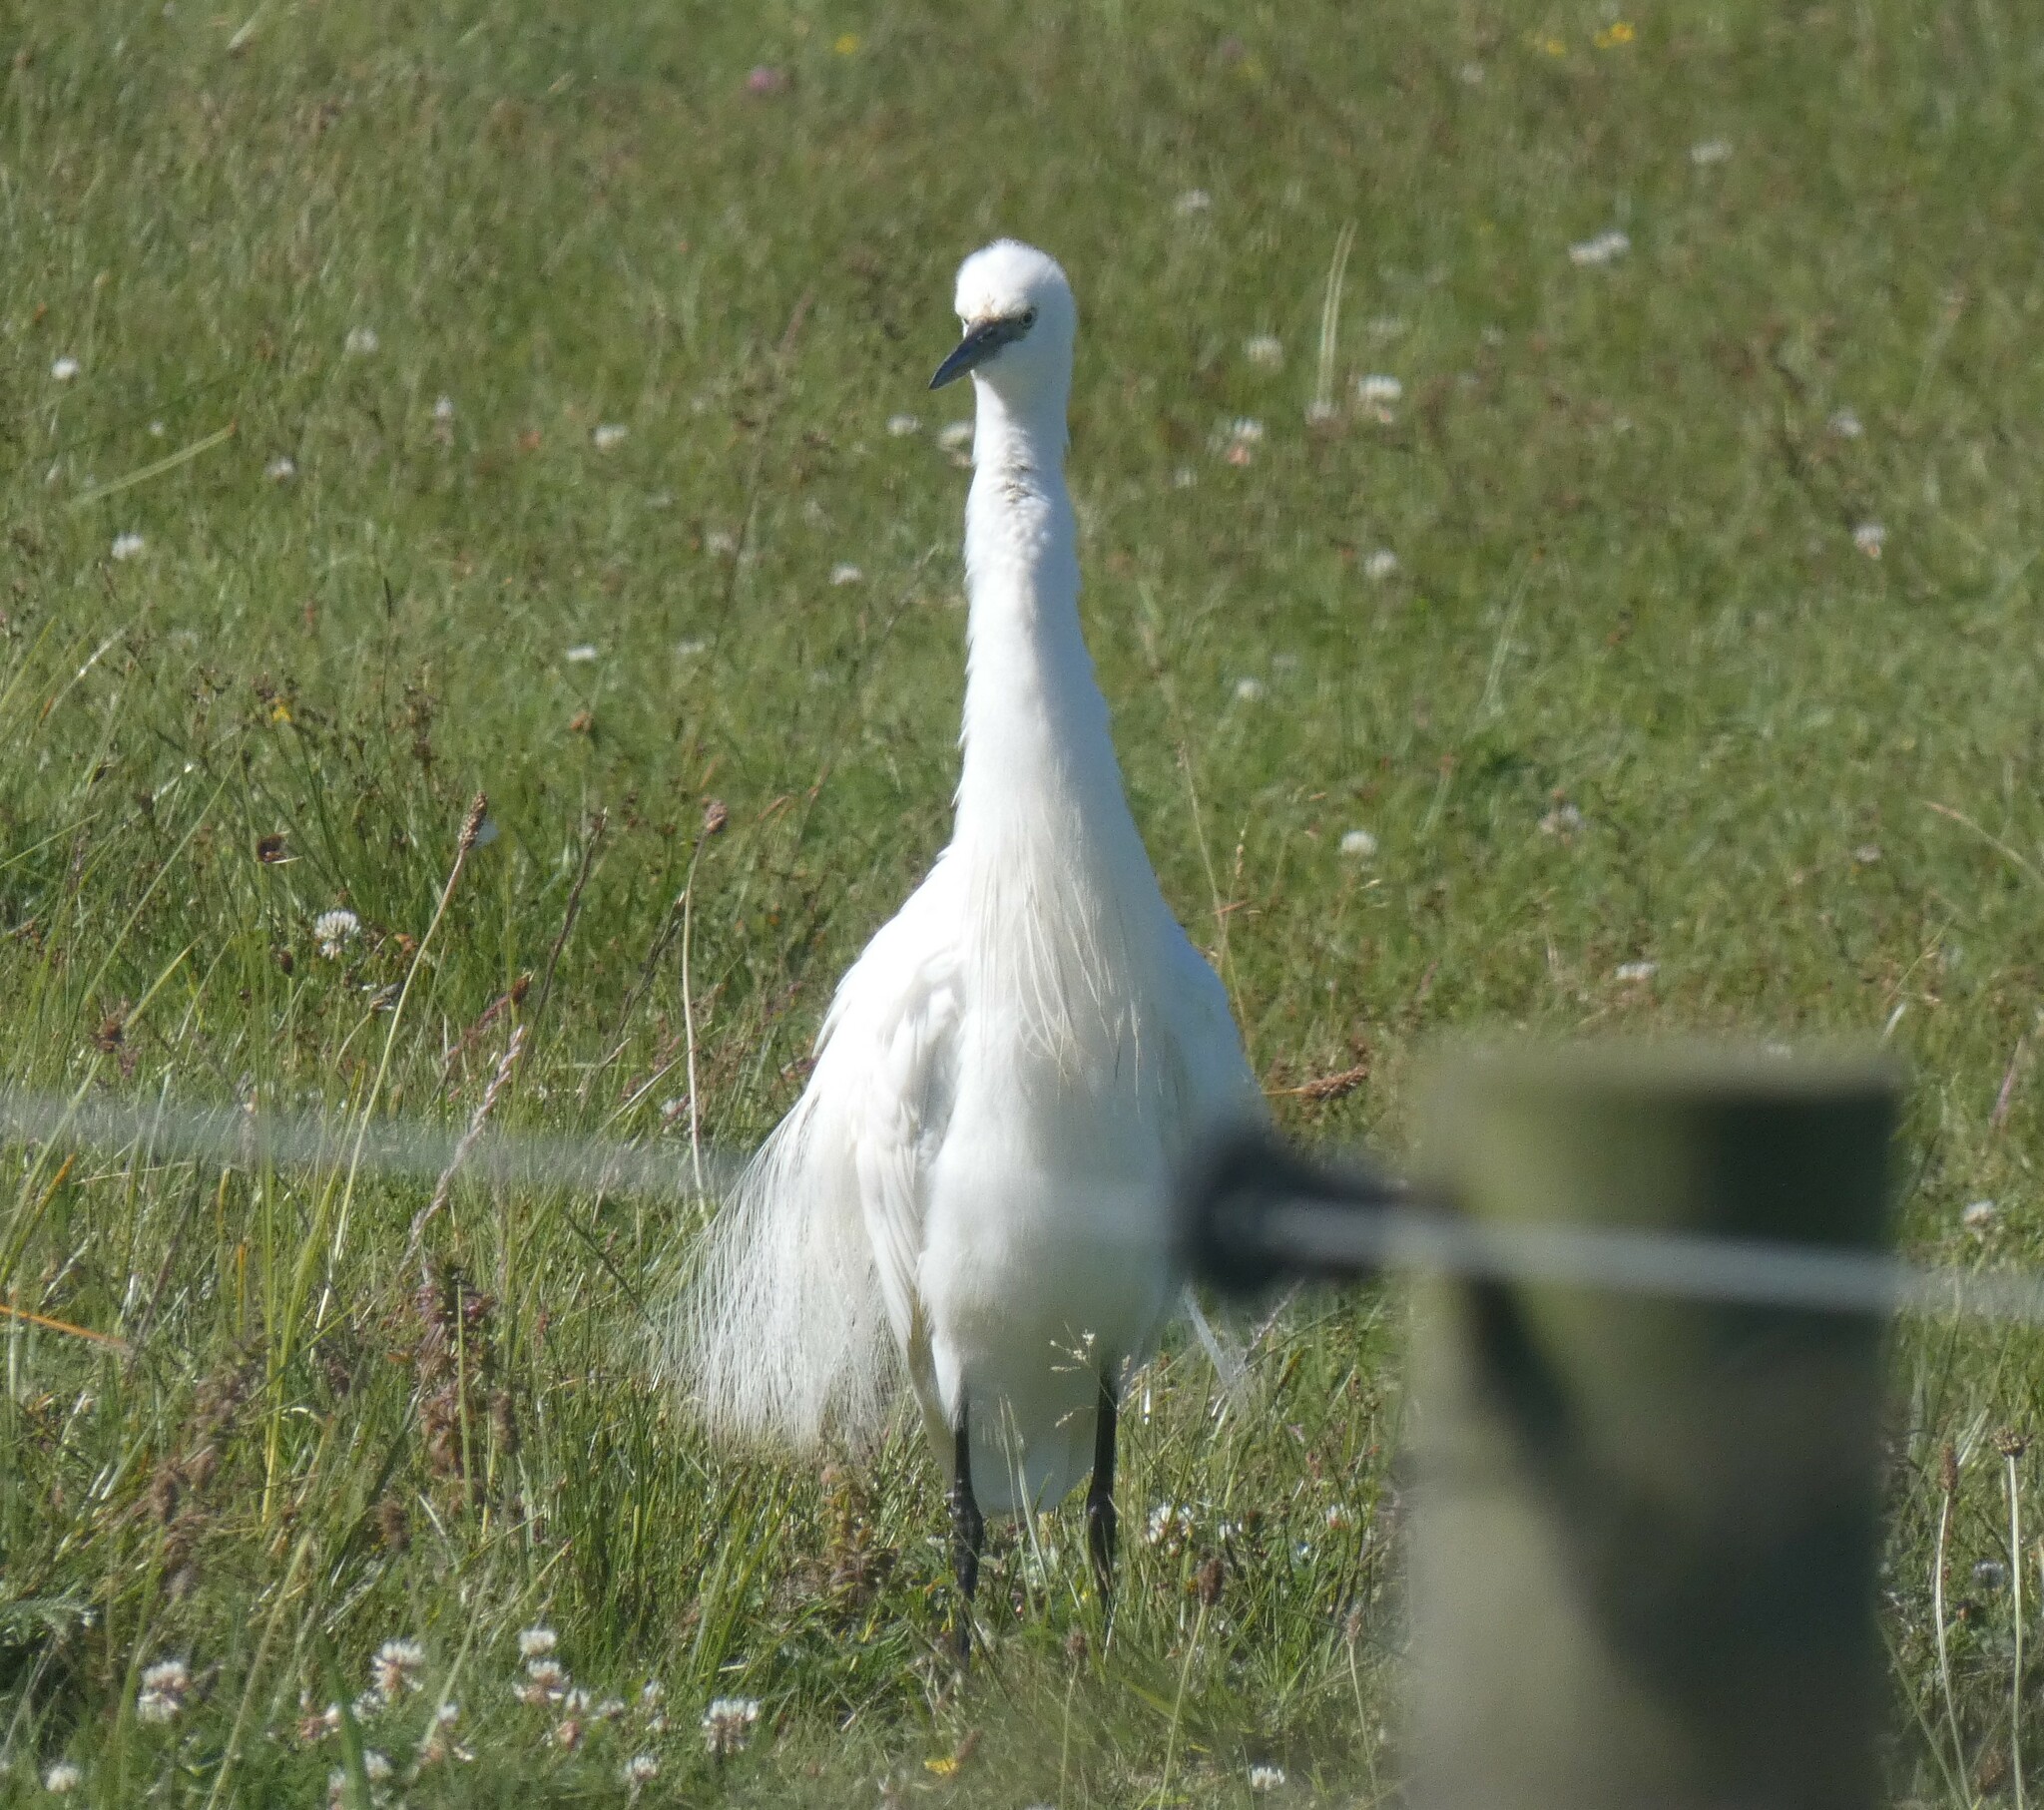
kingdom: Animalia
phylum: Chordata
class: Aves
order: Pelecaniformes
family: Ardeidae
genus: Egretta
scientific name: Egretta garzetta
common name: Little egret
